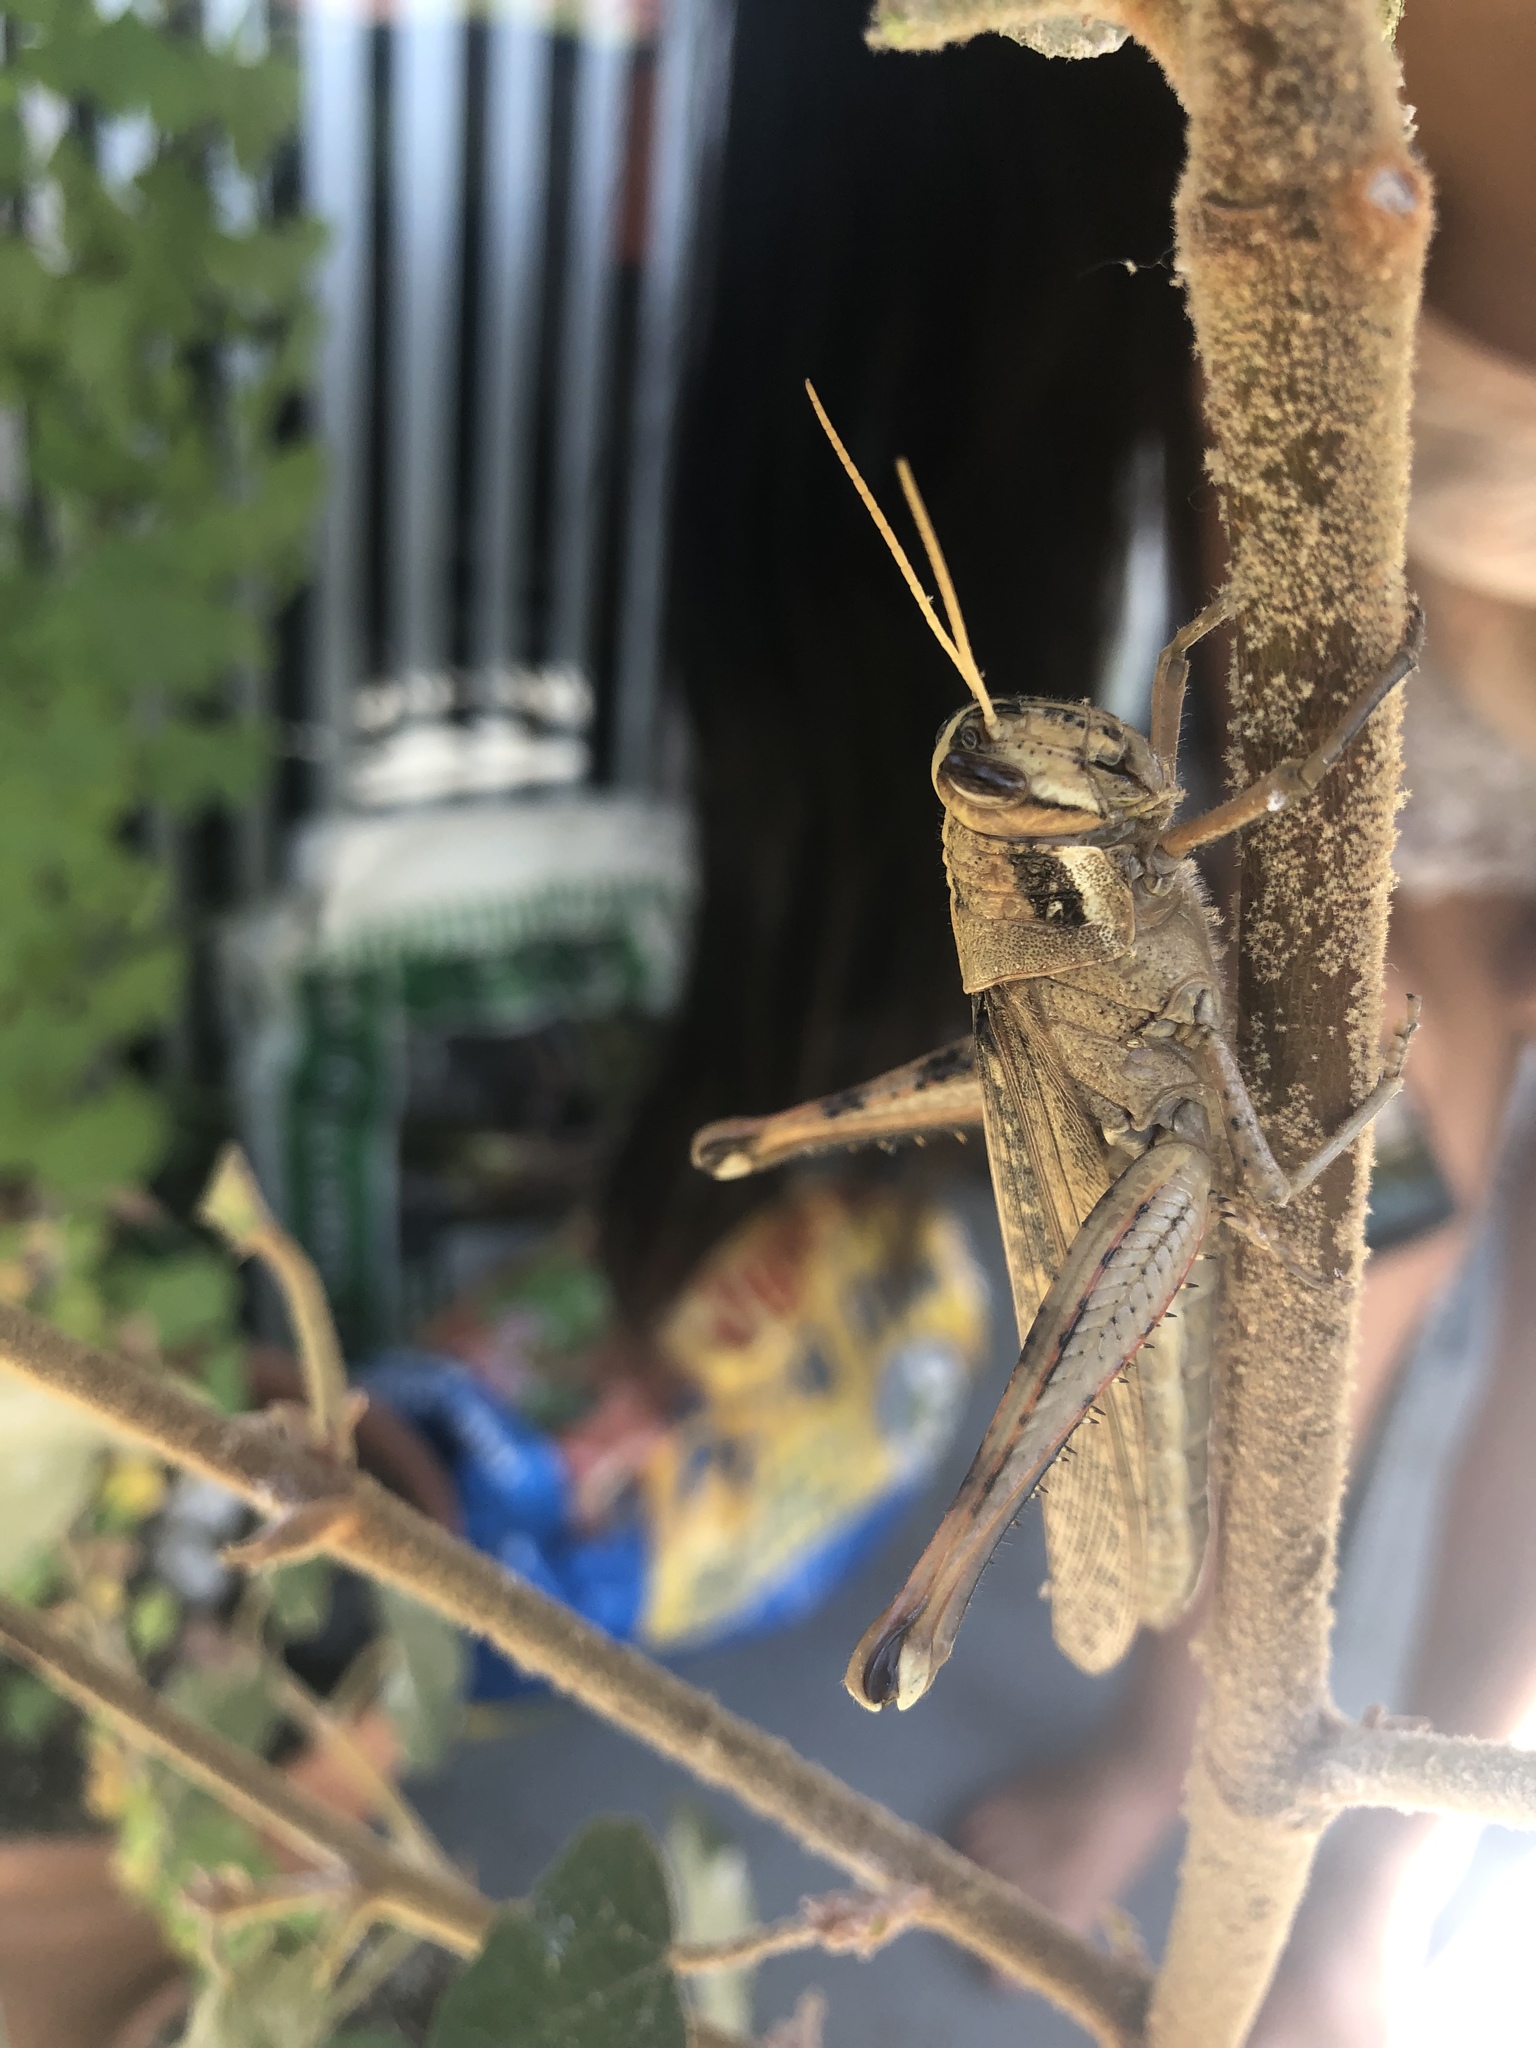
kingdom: Animalia
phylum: Arthropoda
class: Insecta
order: Orthoptera
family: Acrididae
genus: Schistocerca
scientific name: Schistocerca nitens
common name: Vagrant grasshopper
